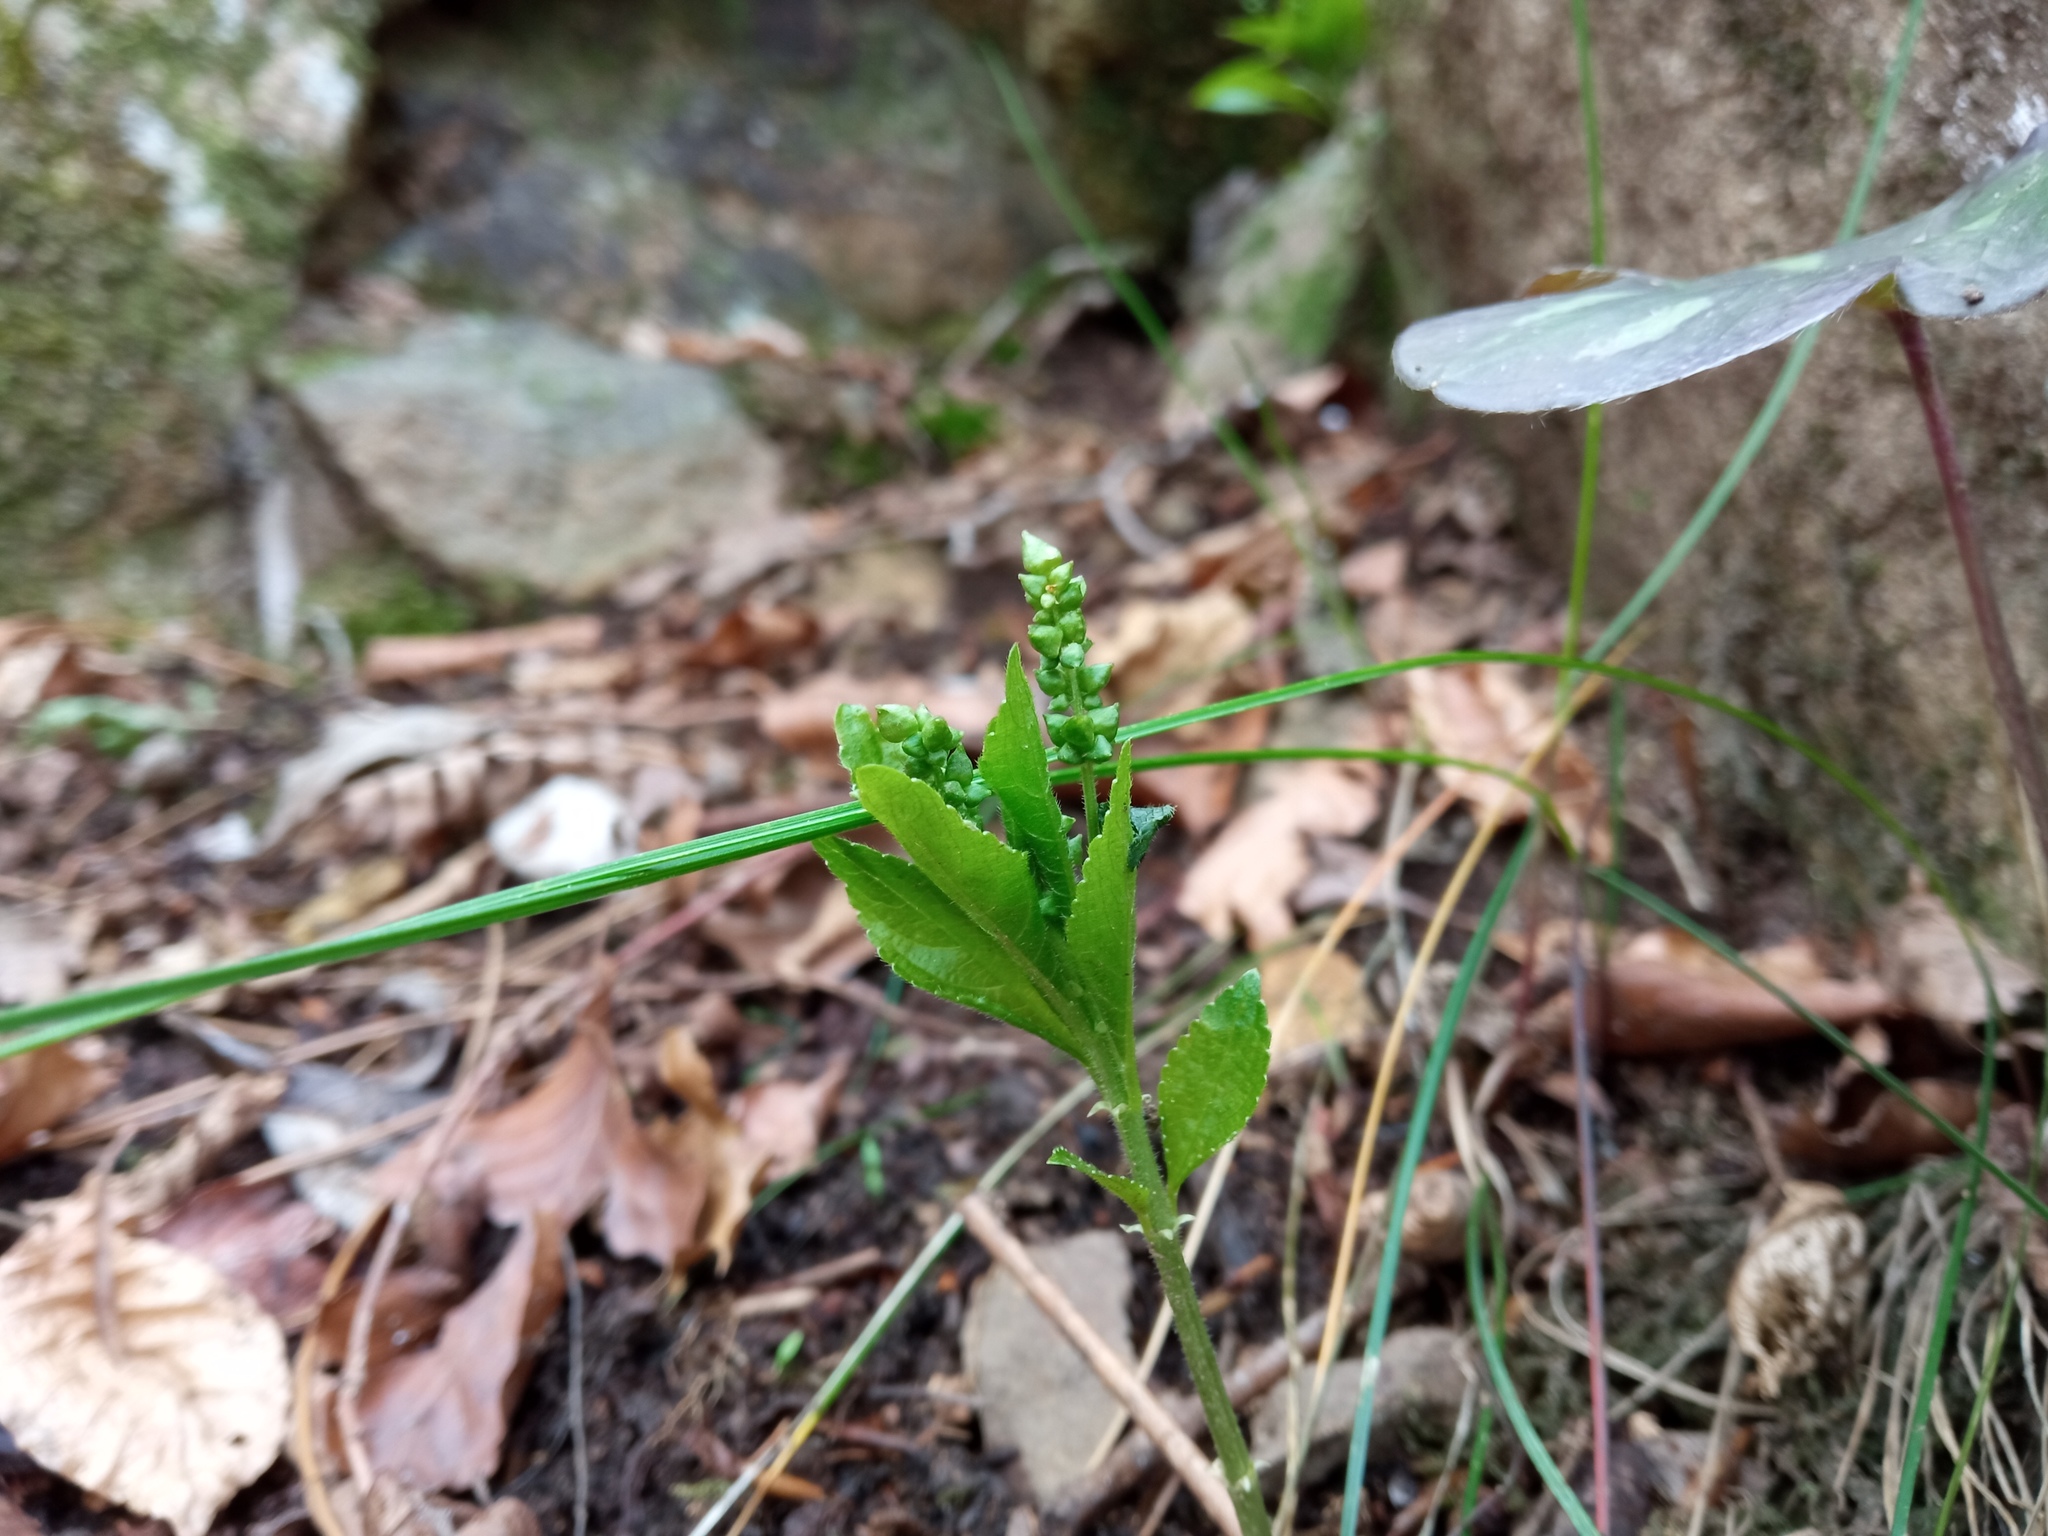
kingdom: Plantae
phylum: Tracheophyta
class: Magnoliopsida
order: Malpighiales
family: Euphorbiaceae
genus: Mercurialis
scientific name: Mercurialis perennis
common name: Dog mercury
